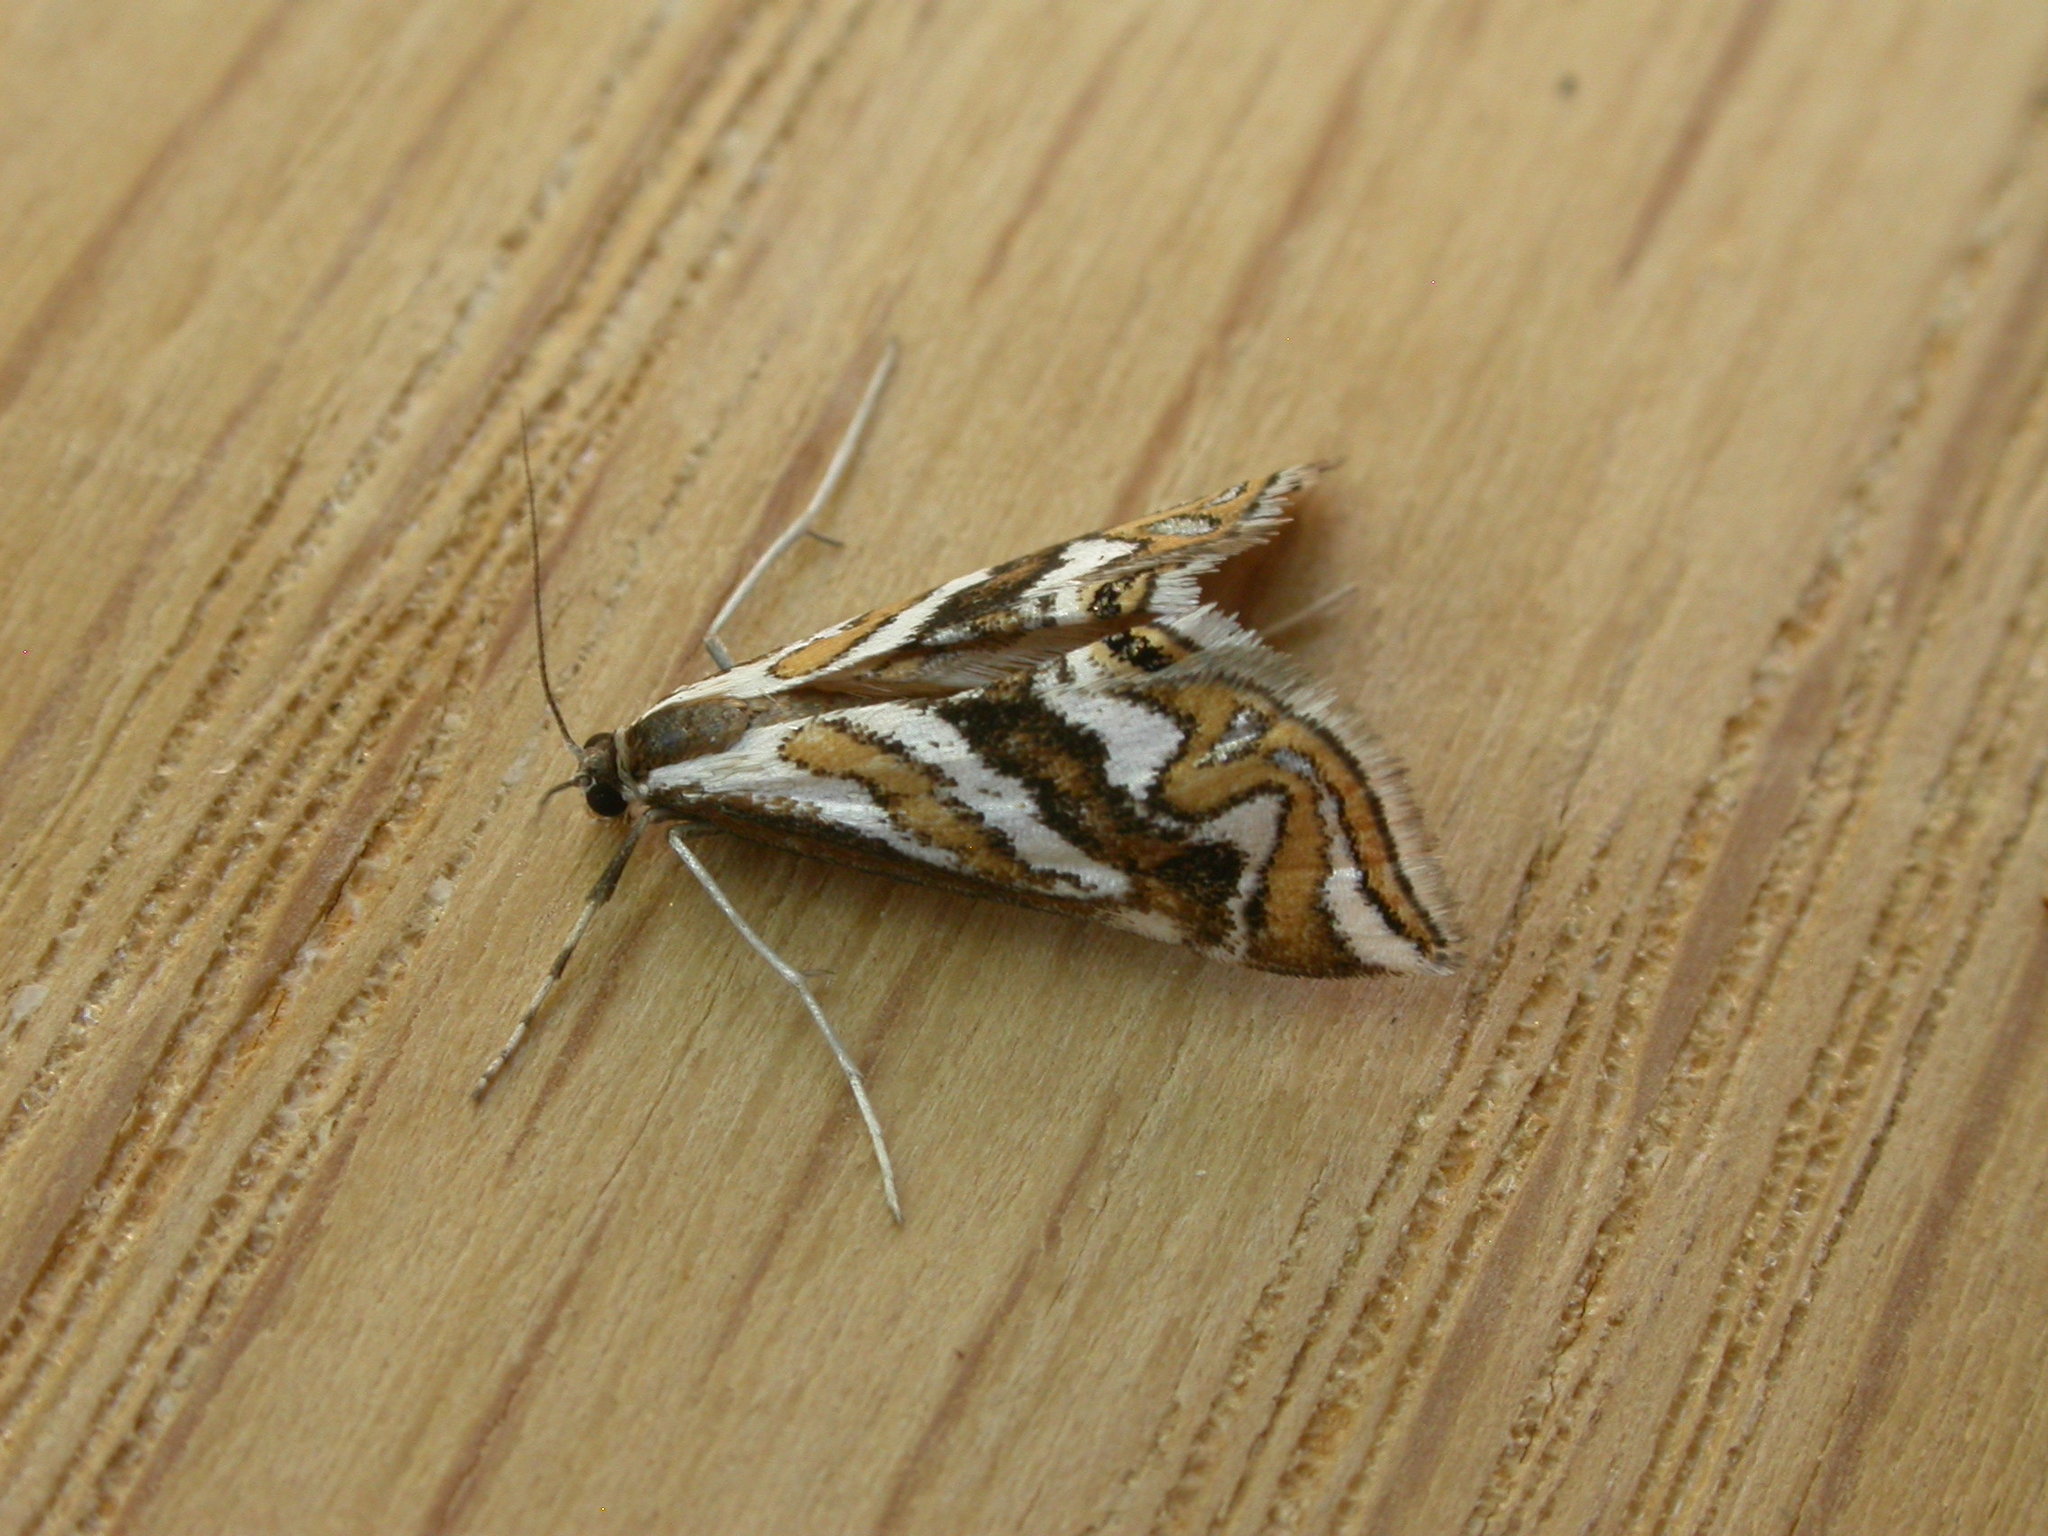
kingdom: Animalia
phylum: Arthropoda
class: Insecta
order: Lepidoptera
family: Crambidae
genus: Anydraula
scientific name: Anydraula glycerialis
